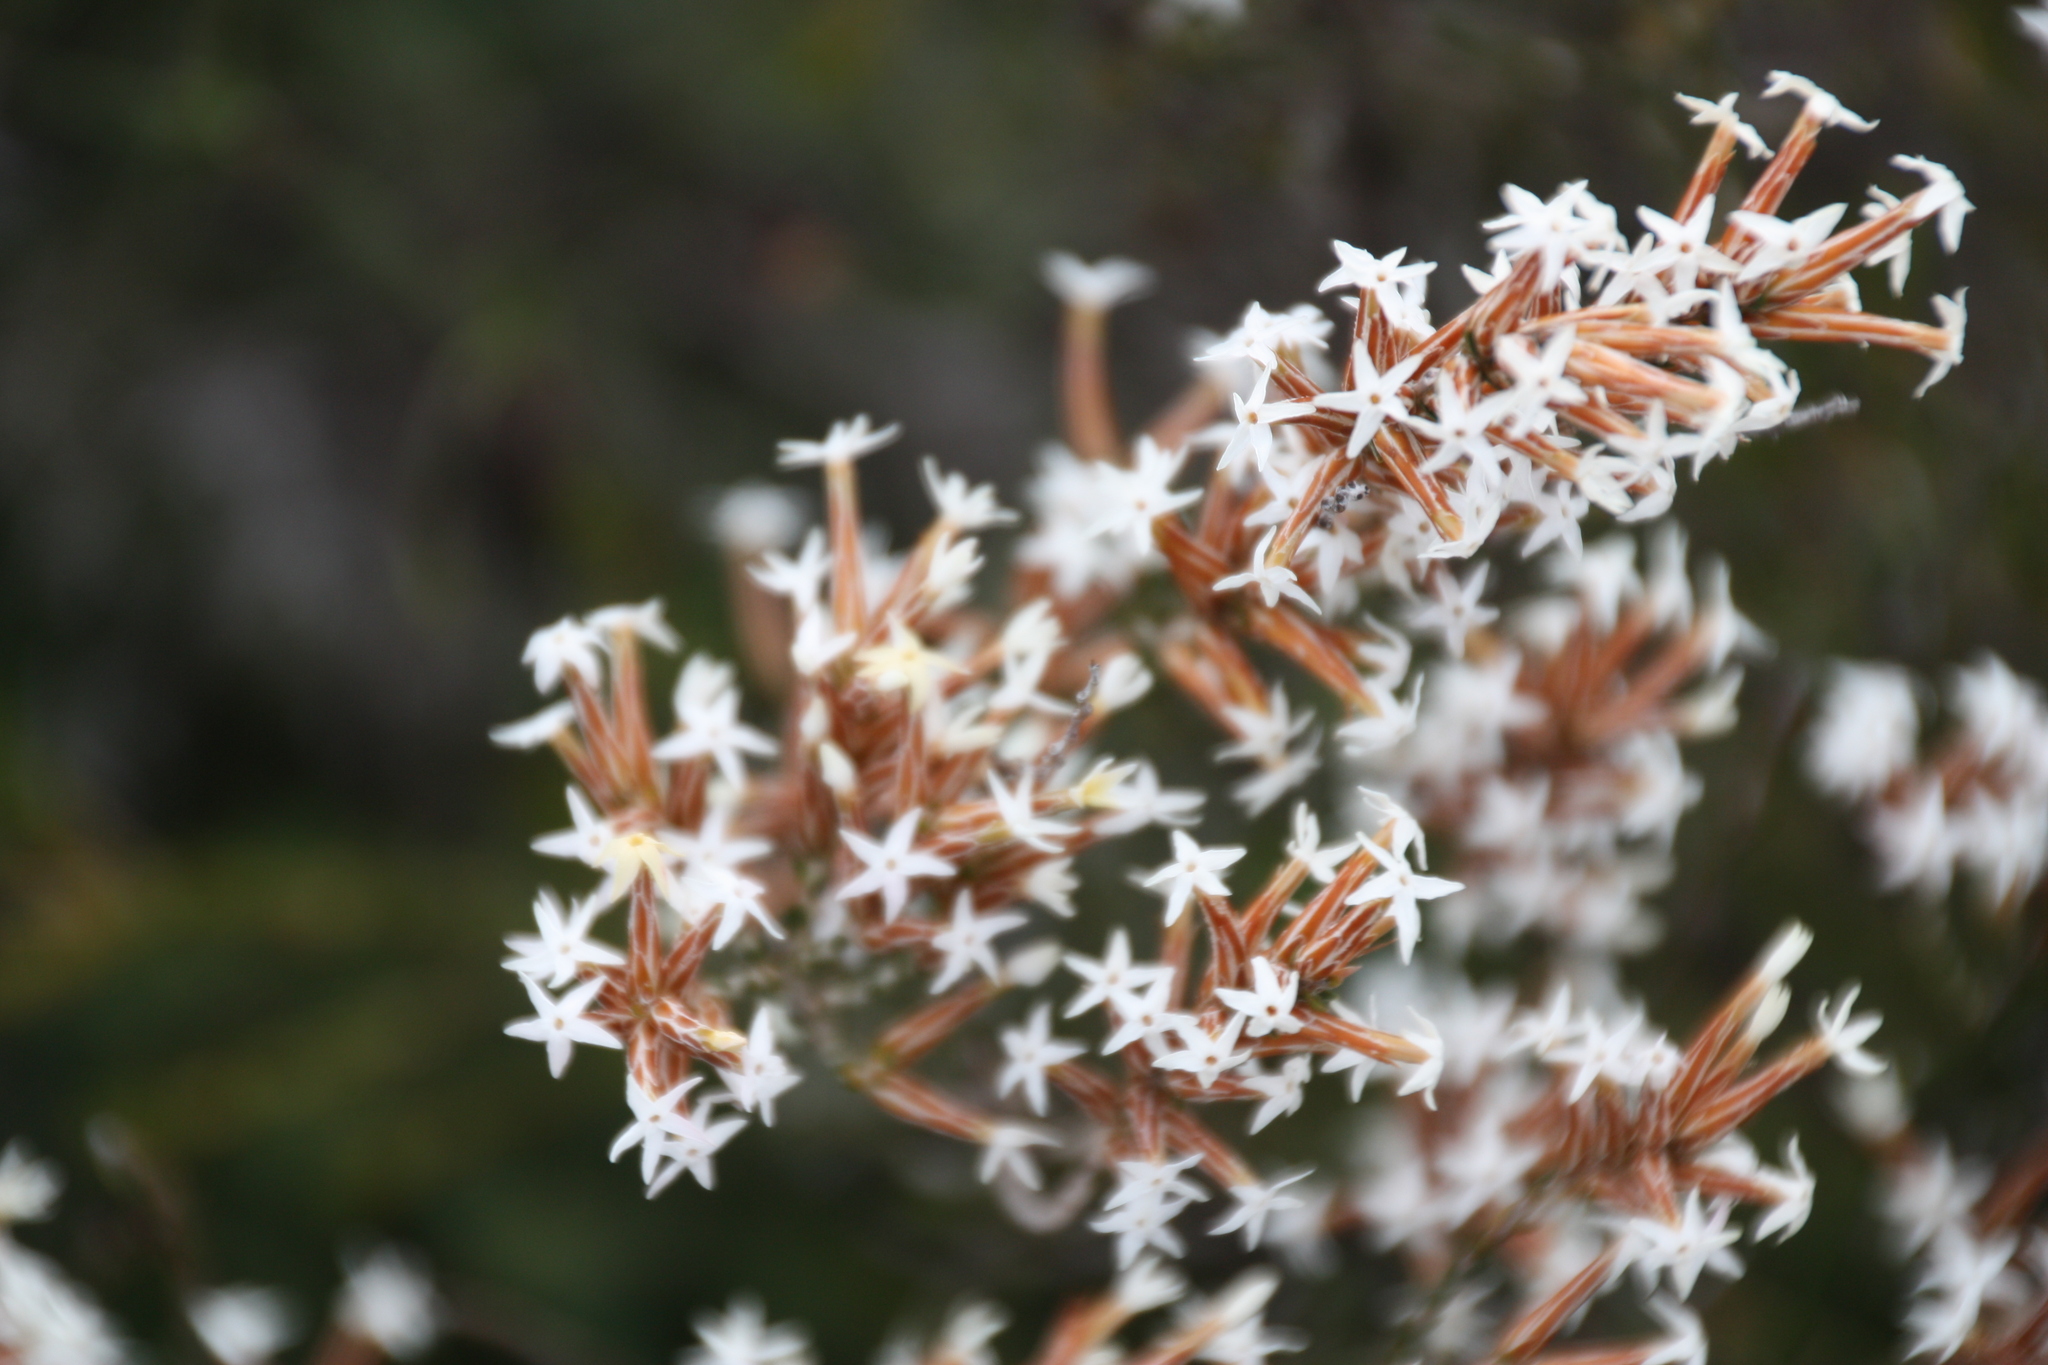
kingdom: Plantae
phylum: Tracheophyta
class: Magnoliopsida
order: Ericales
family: Ericaceae
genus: Lysinema
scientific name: Lysinema pentapetalum
